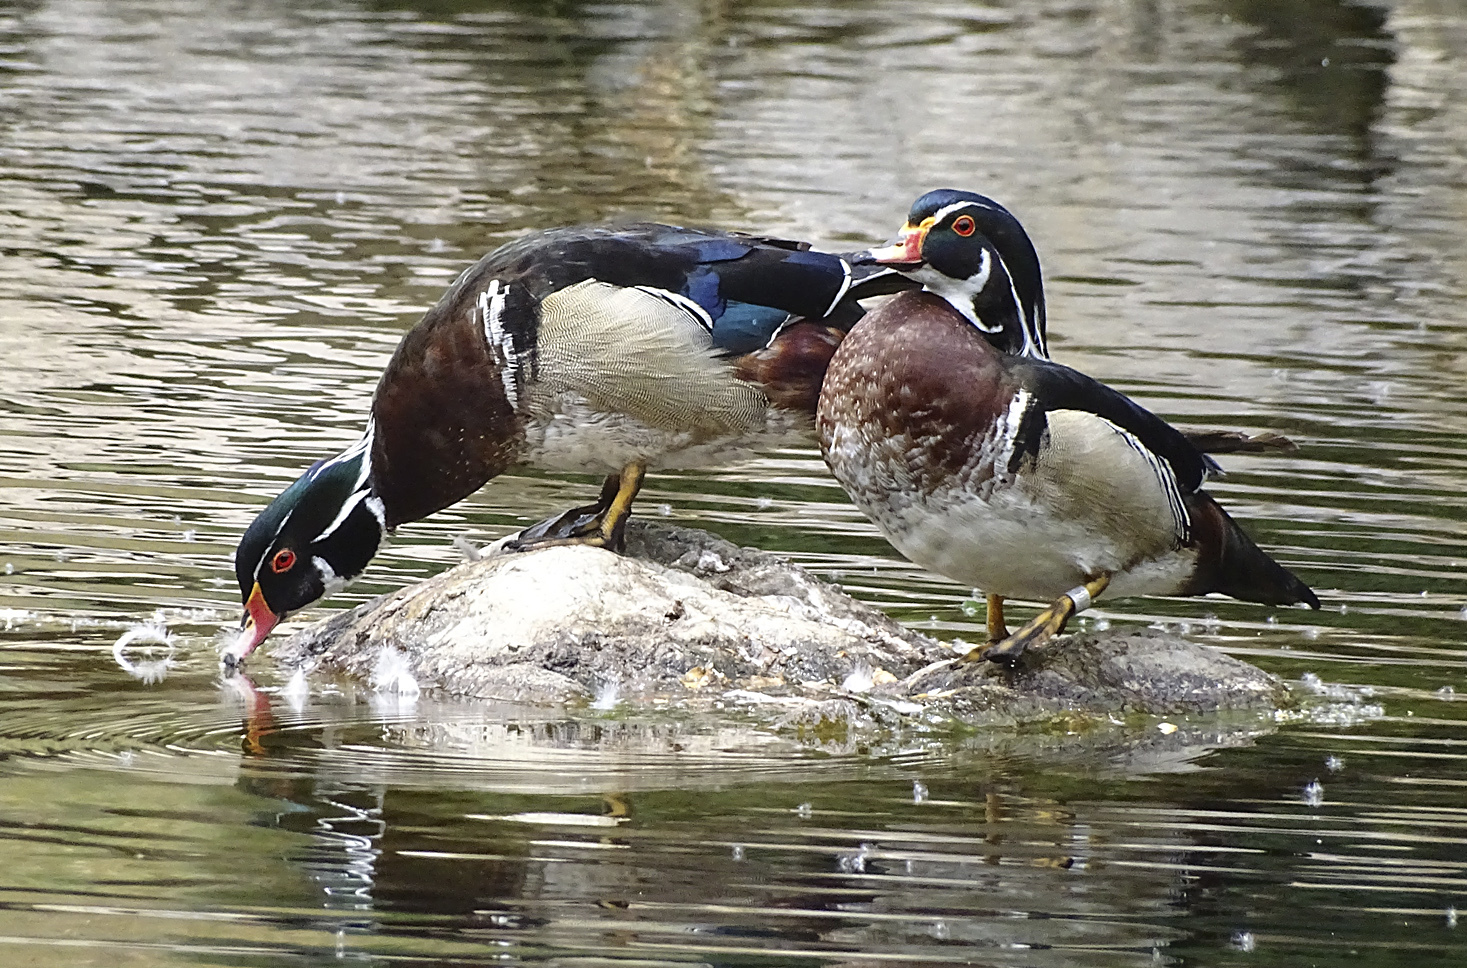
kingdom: Animalia
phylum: Chordata
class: Aves
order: Anseriformes
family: Anatidae
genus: Aix
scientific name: Aix sponsa
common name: Wood duck
